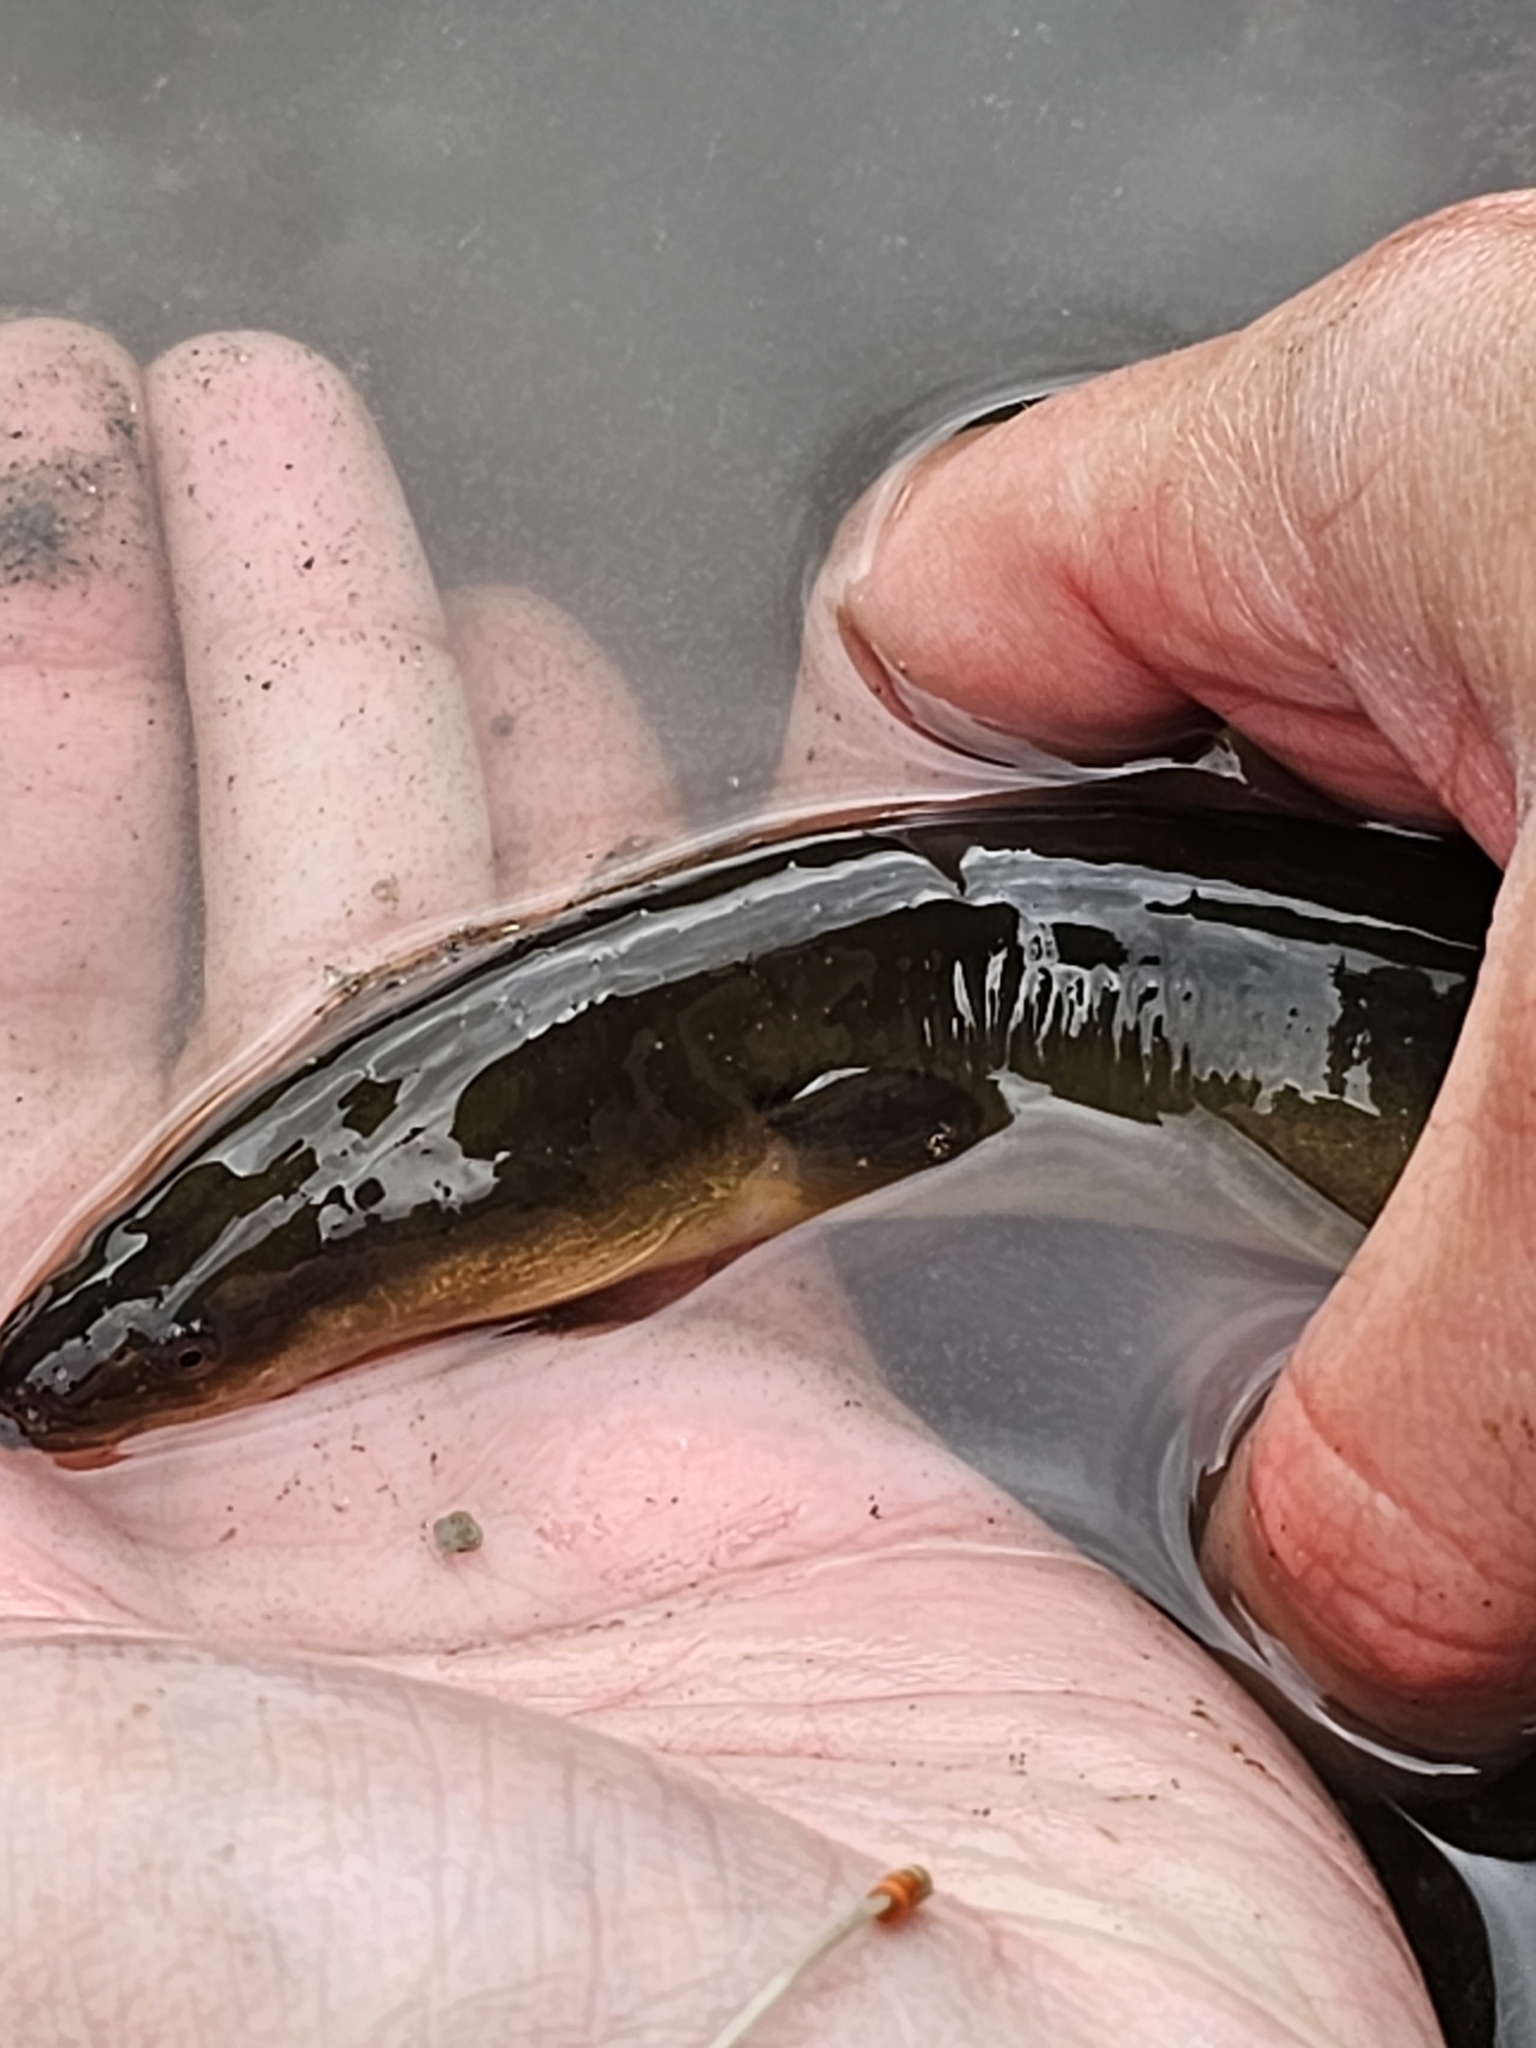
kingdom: Animalia
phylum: Chordata
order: Anguilliformes
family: Anguillidae
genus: Anguilla
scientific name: Anguilla anguilla
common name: European eel
